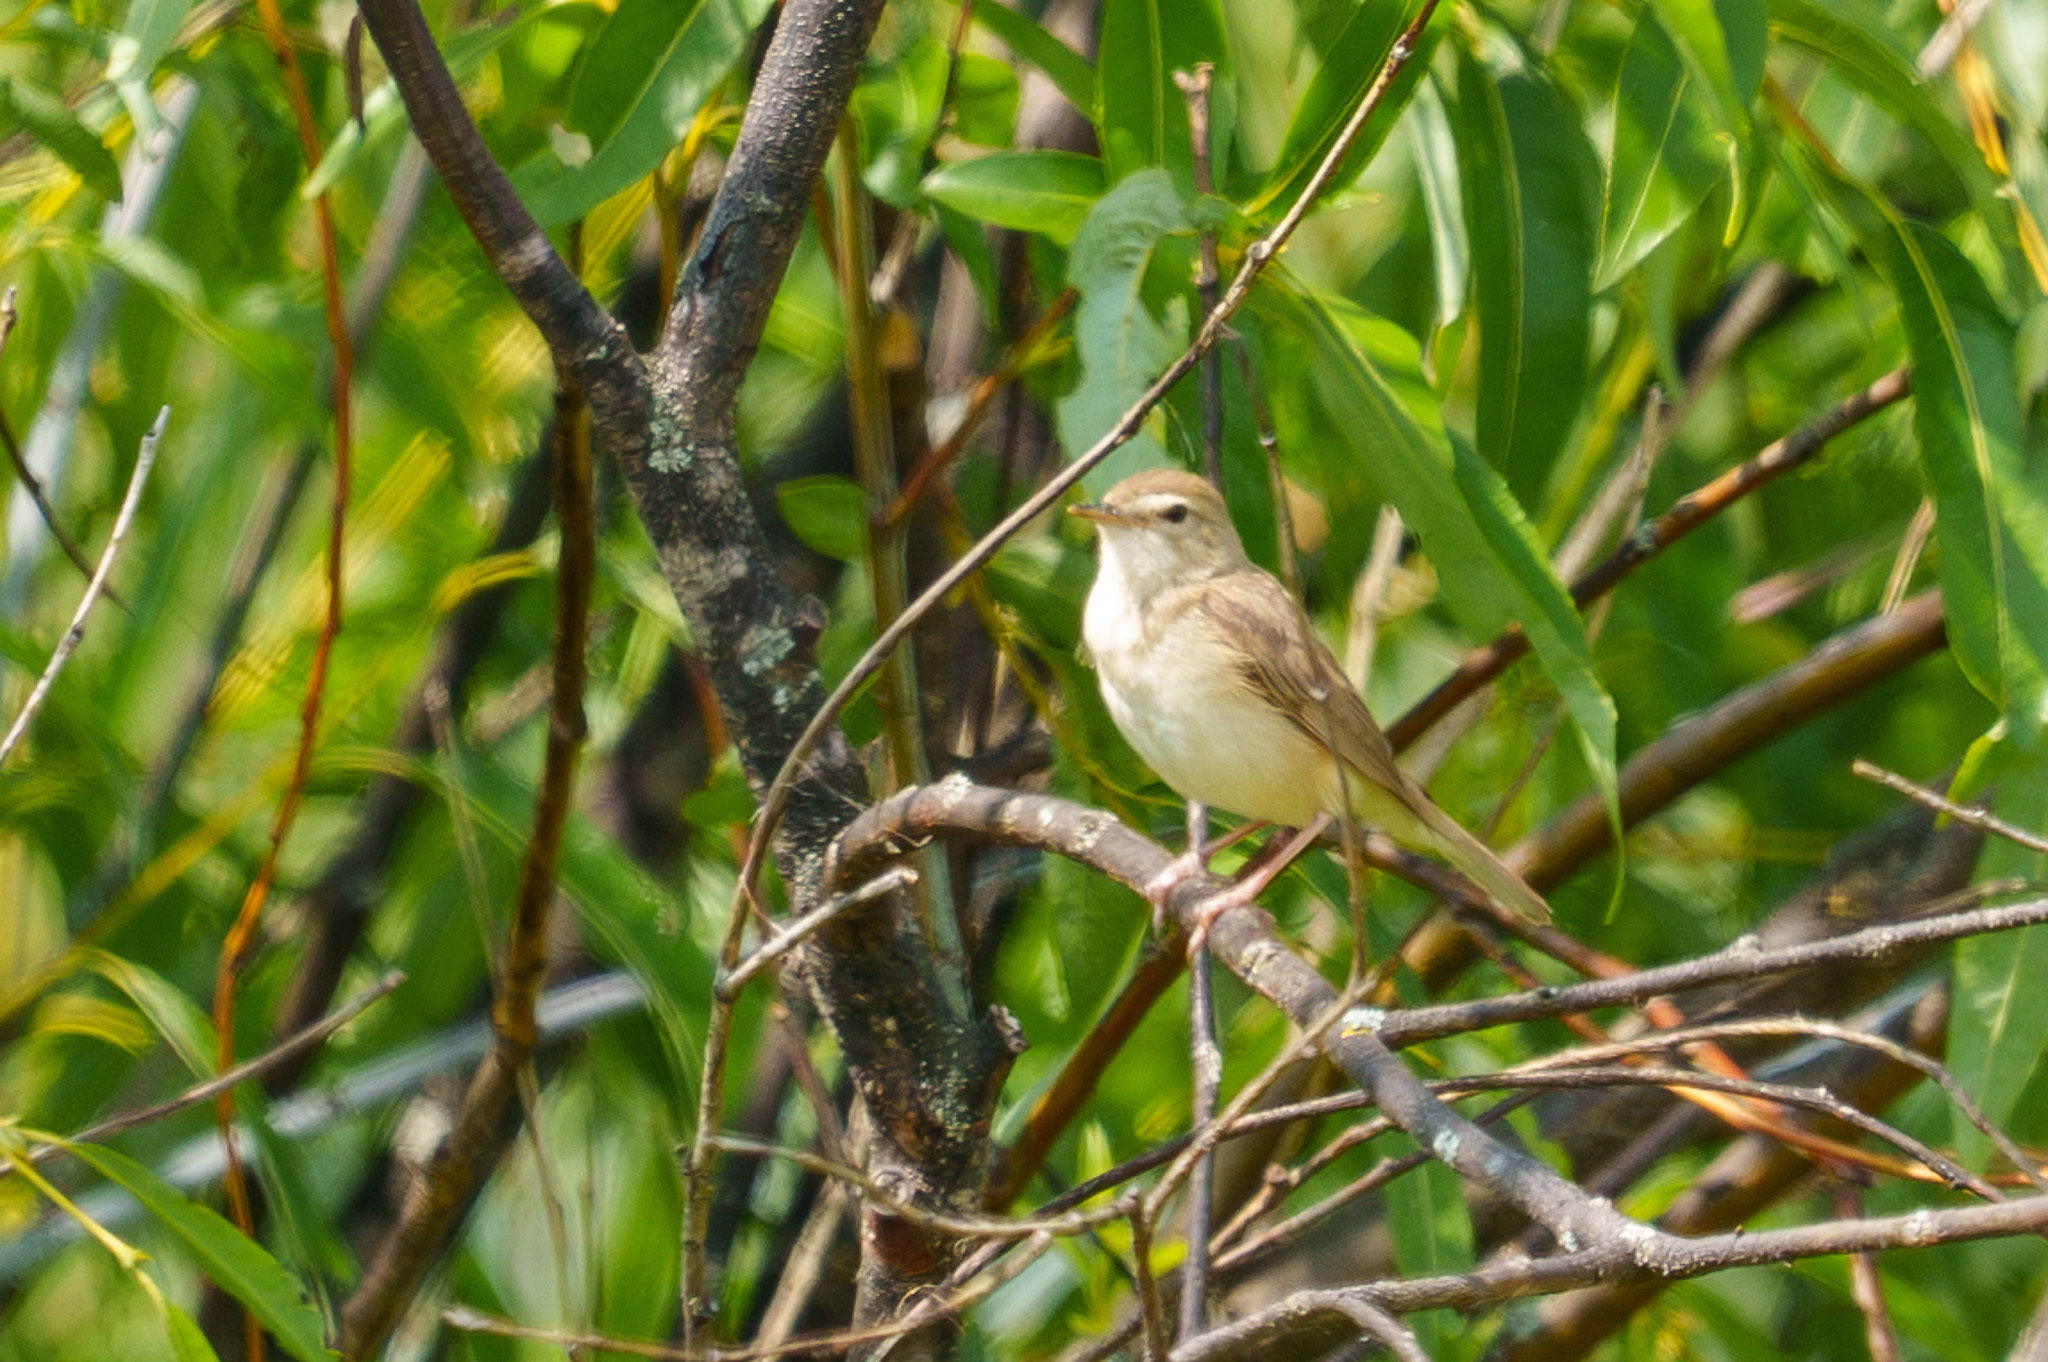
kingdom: Animalia
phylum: Chordata
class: Aves
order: Passeriformes
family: Acrocephalidae
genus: Iduna
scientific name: Iduna caligata
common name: Booted warbler
